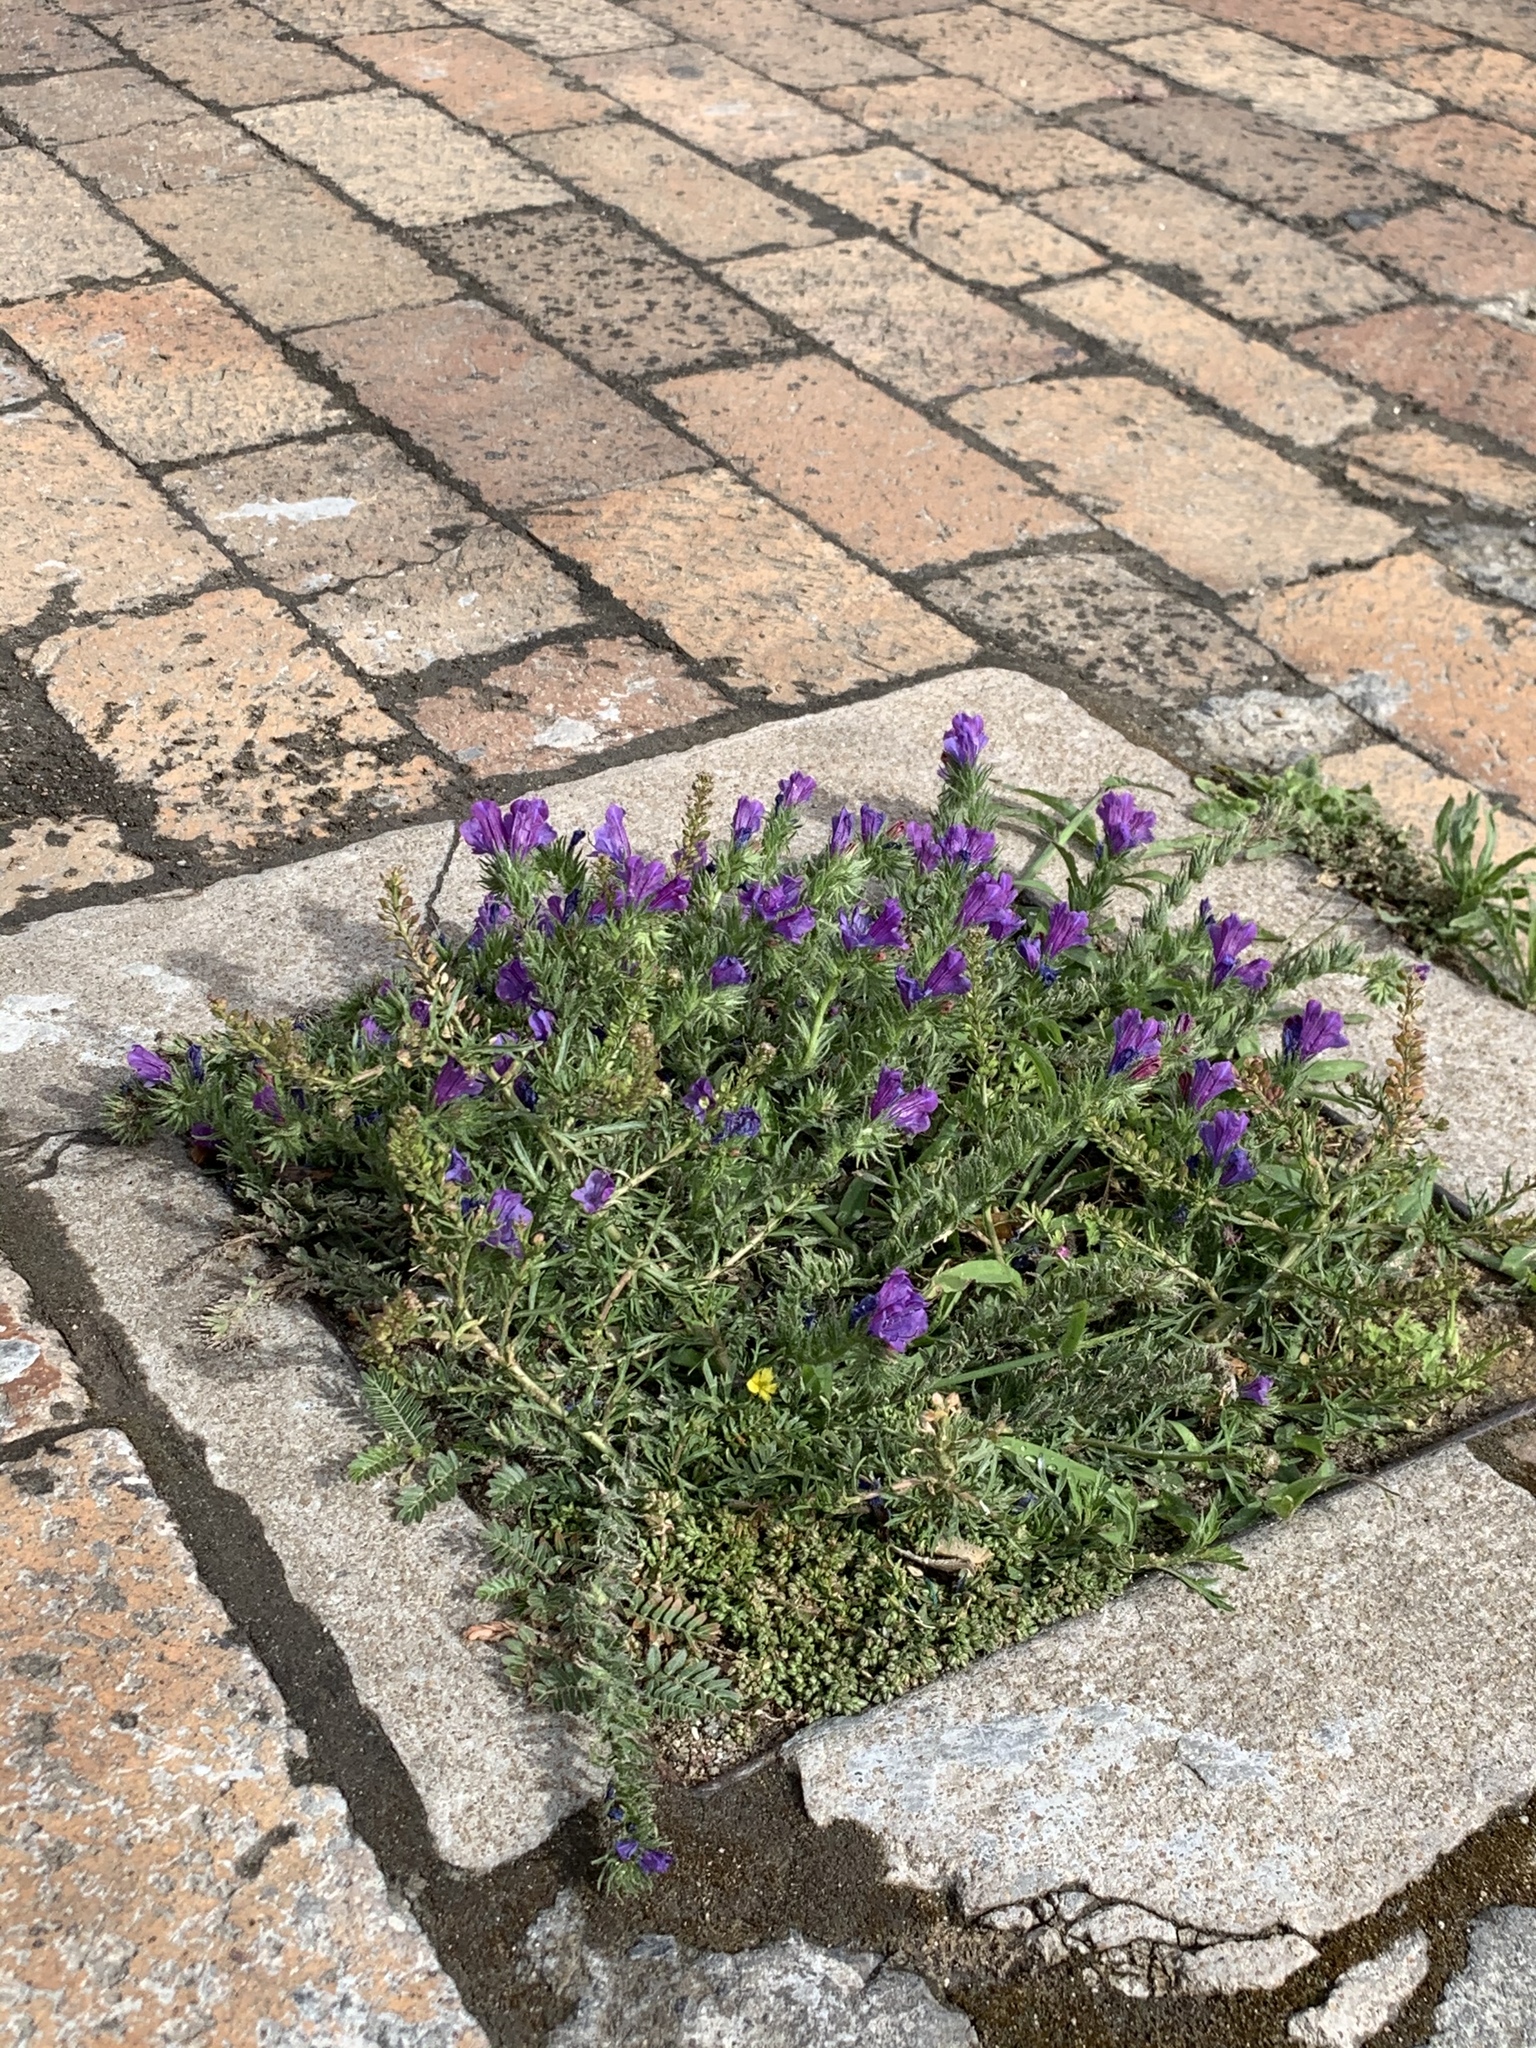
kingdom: Plantae
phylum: Tracheophyta
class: Magnoliopsida
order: Boraginales
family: Boraginaceae
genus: Echium
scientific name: Echium plantagineum
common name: Purple viper's-bugloss
